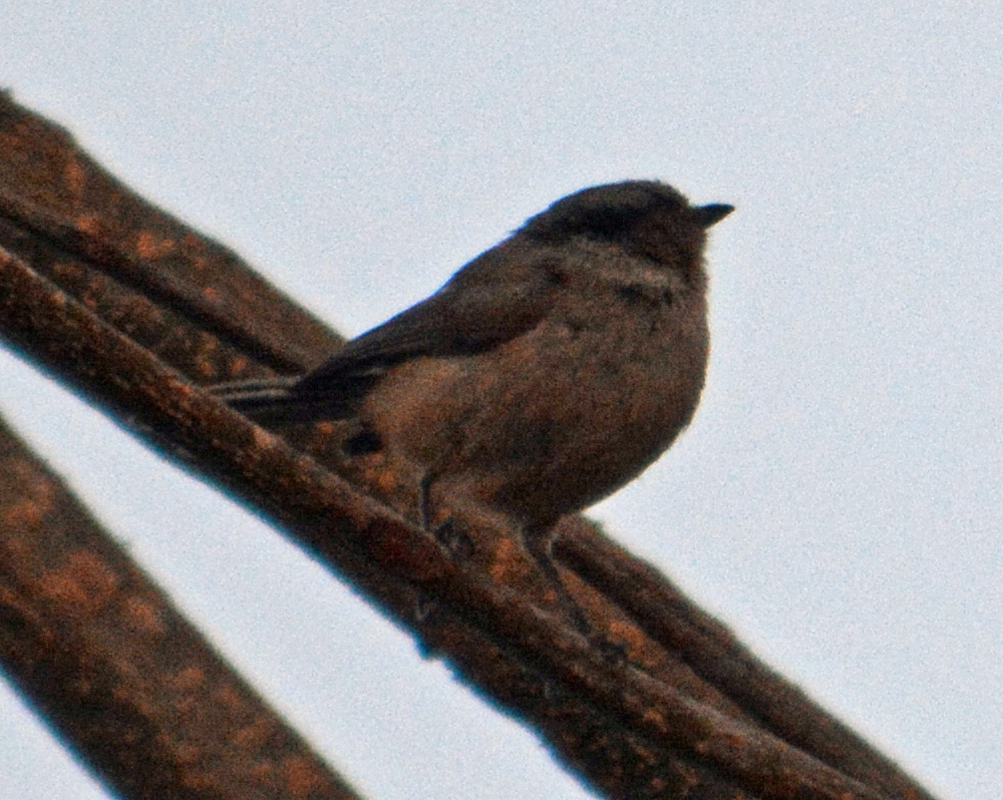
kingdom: Animalia
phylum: Chordata
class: Aves
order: Passeriformes
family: Aegithalidae
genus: Psaltriparus
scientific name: Psaltriparus minimus
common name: American bushtit
